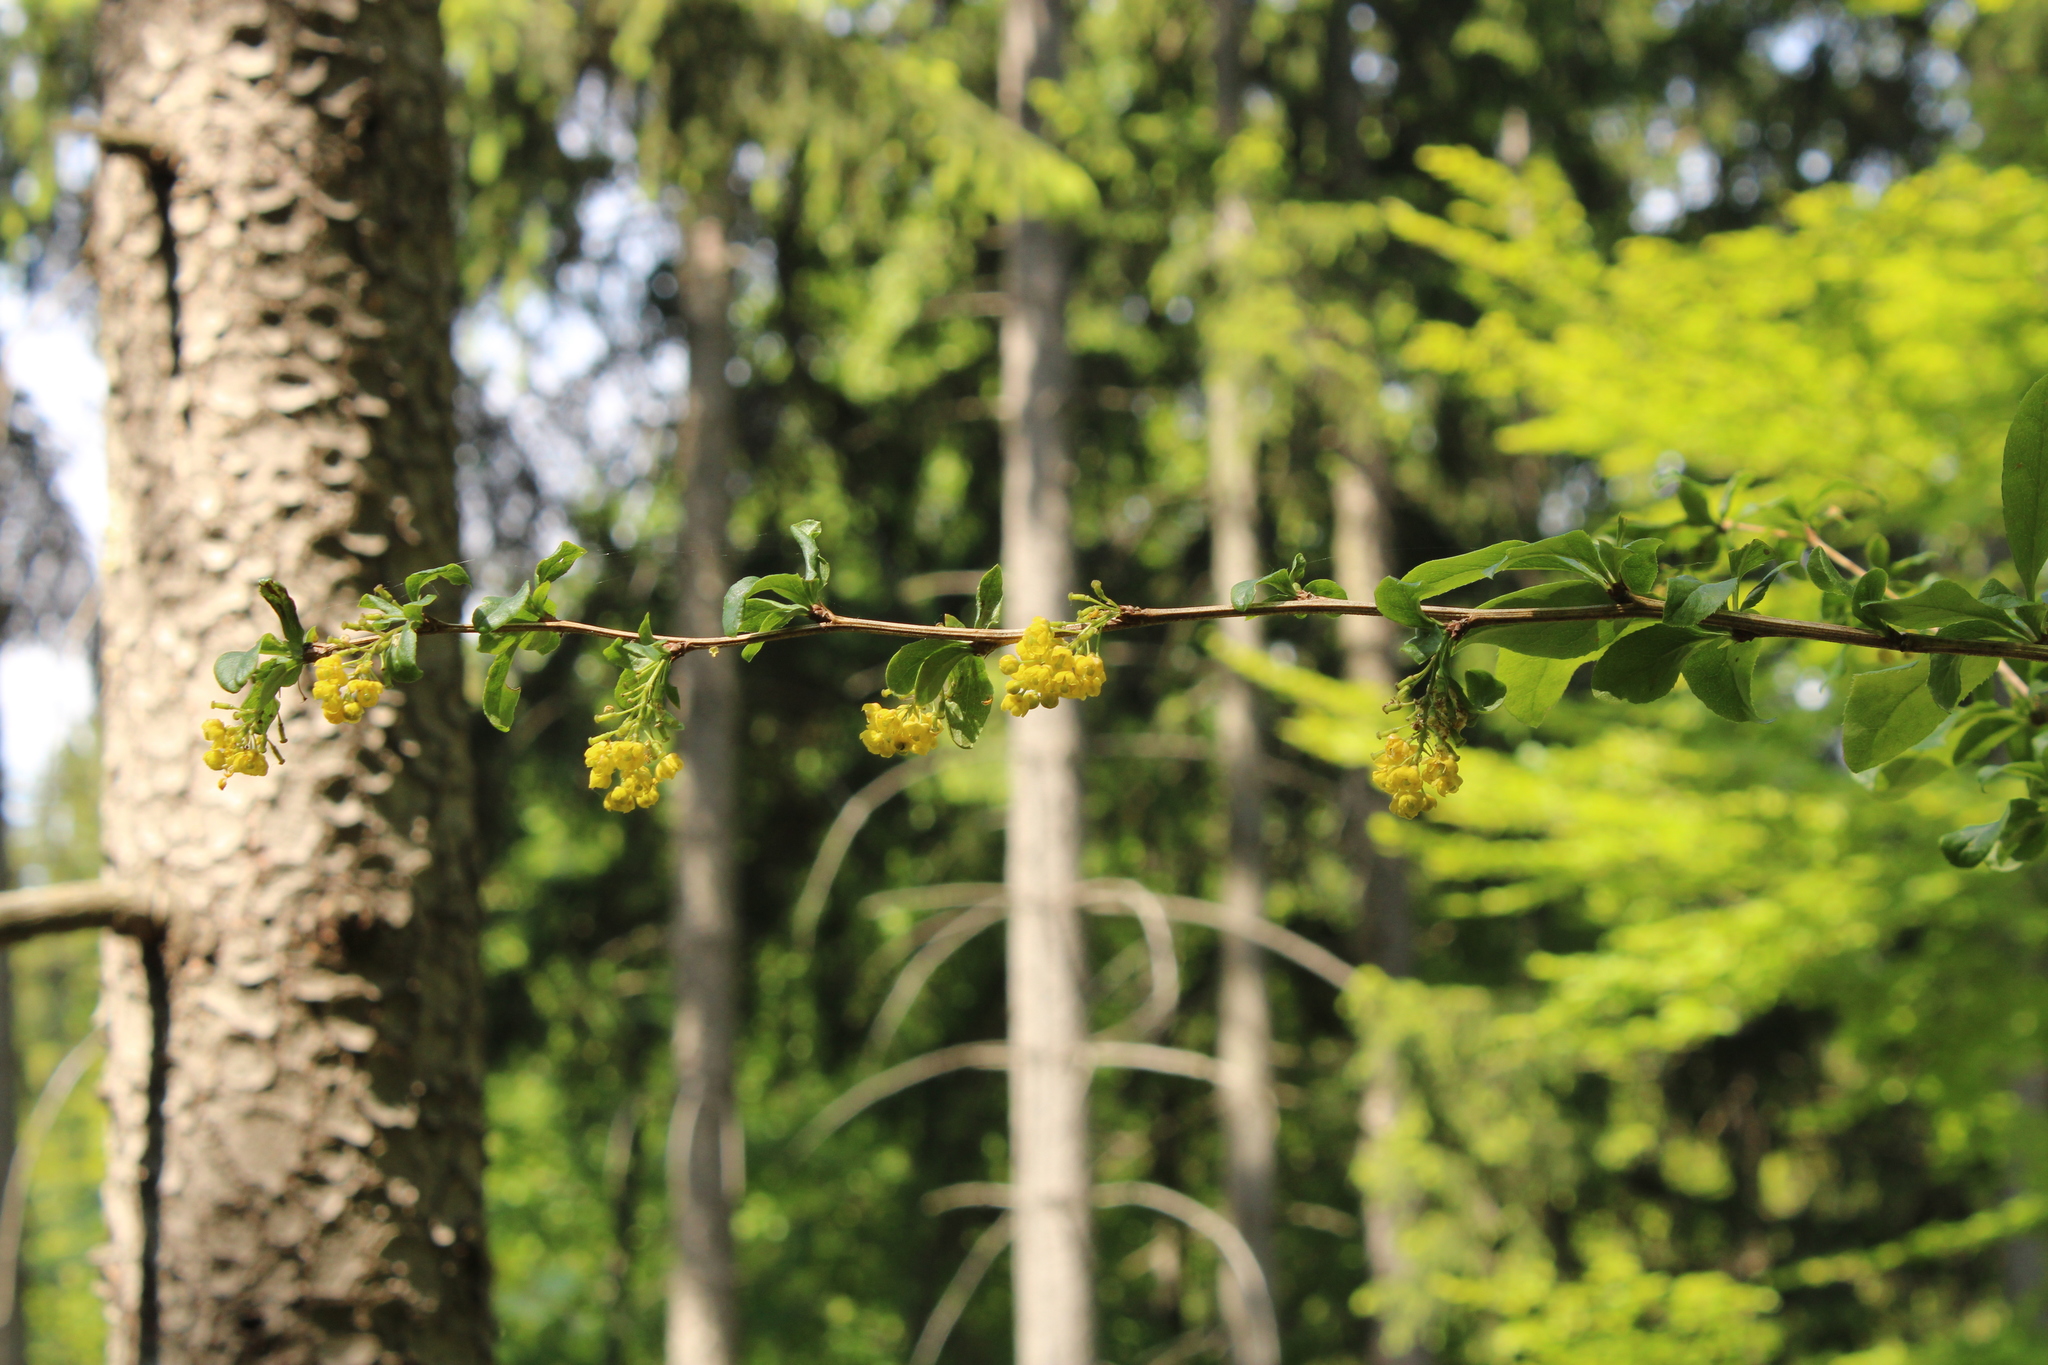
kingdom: Plantae
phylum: Tracheophyta
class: Magnoliopsida
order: Ranunculales
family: Berberidaceae
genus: Berberis
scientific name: Berberis vulgaris
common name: Barberry
